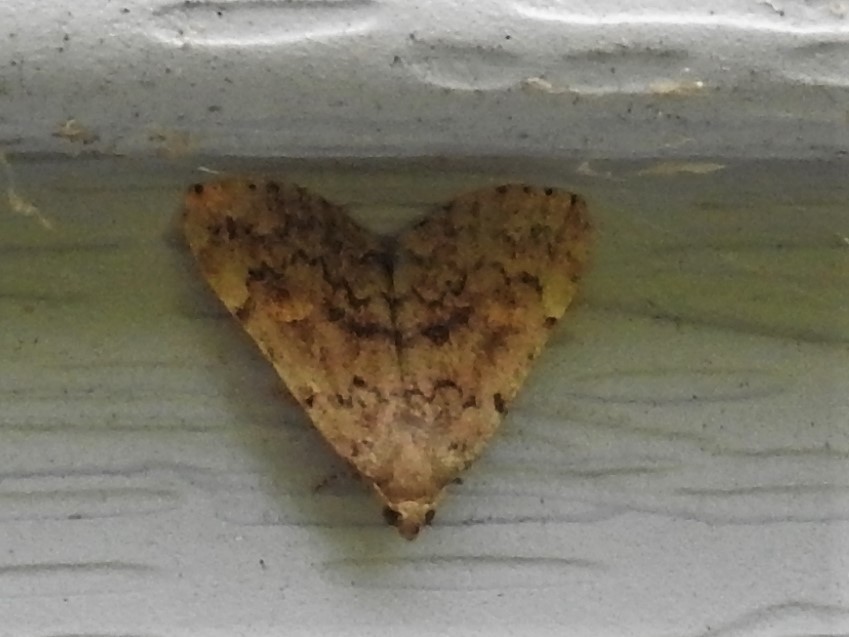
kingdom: Animalia
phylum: Arthropoda
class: Insecta
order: Lepidoptera
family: Erebidae
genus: Idia
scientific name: Idia aemula
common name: Common idia moth
